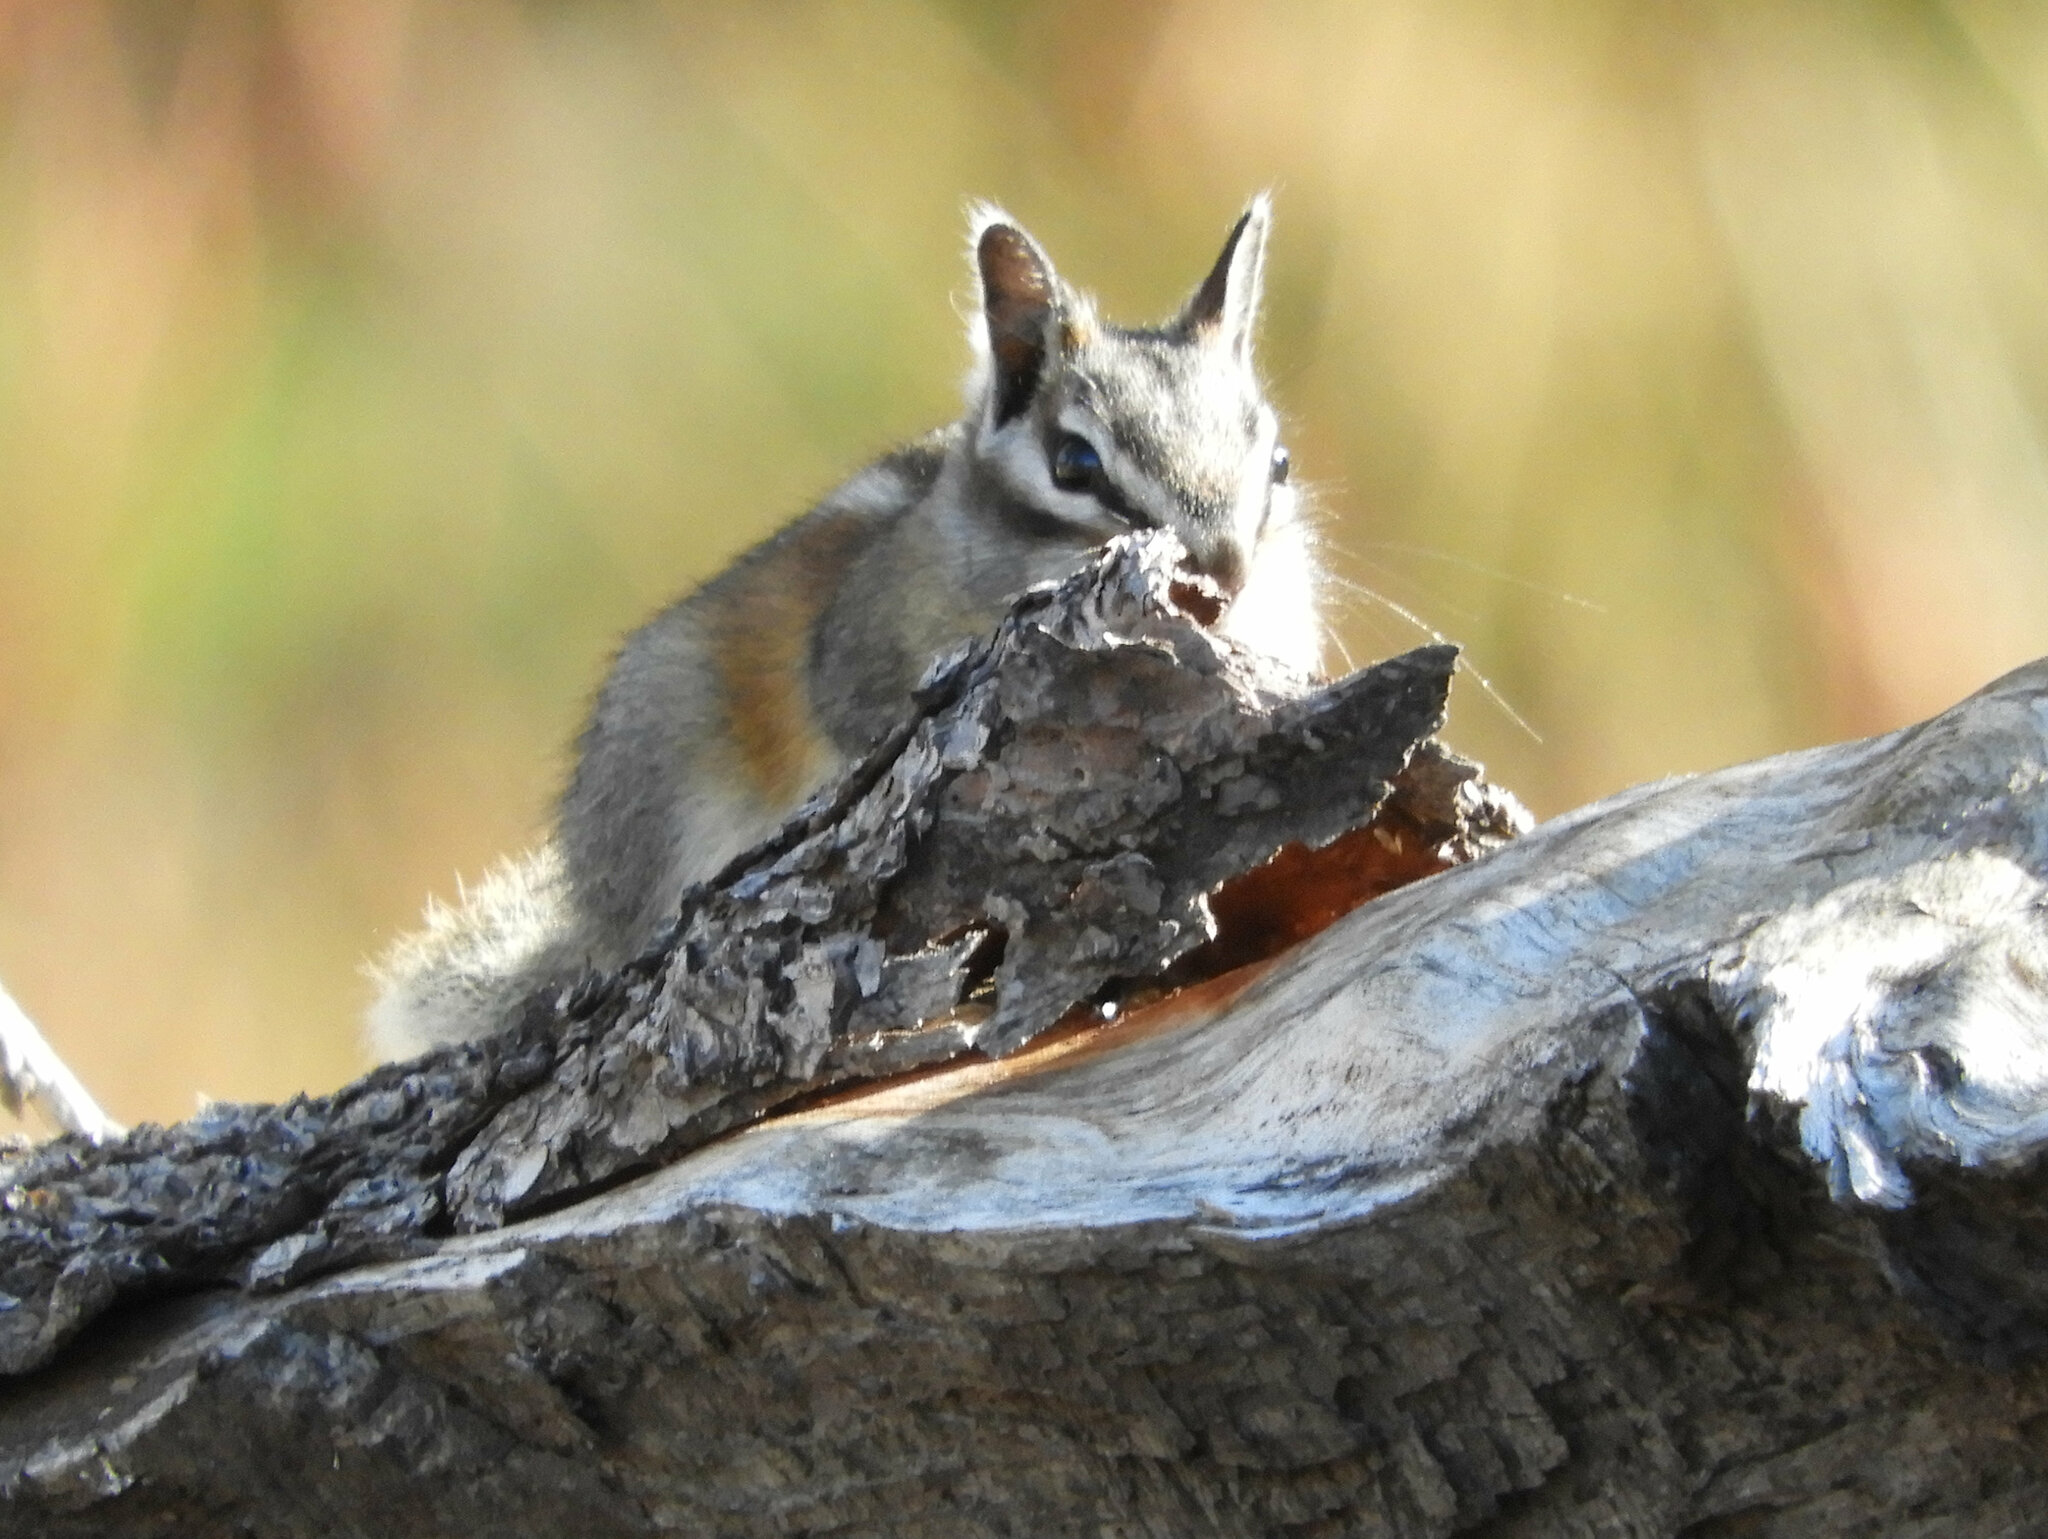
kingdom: Animalia
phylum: Chordata
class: Mammalia
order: Rodentia
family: Sciuridae
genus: Tamias
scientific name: Tamias speciosus
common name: Lodgepole chipmunk
